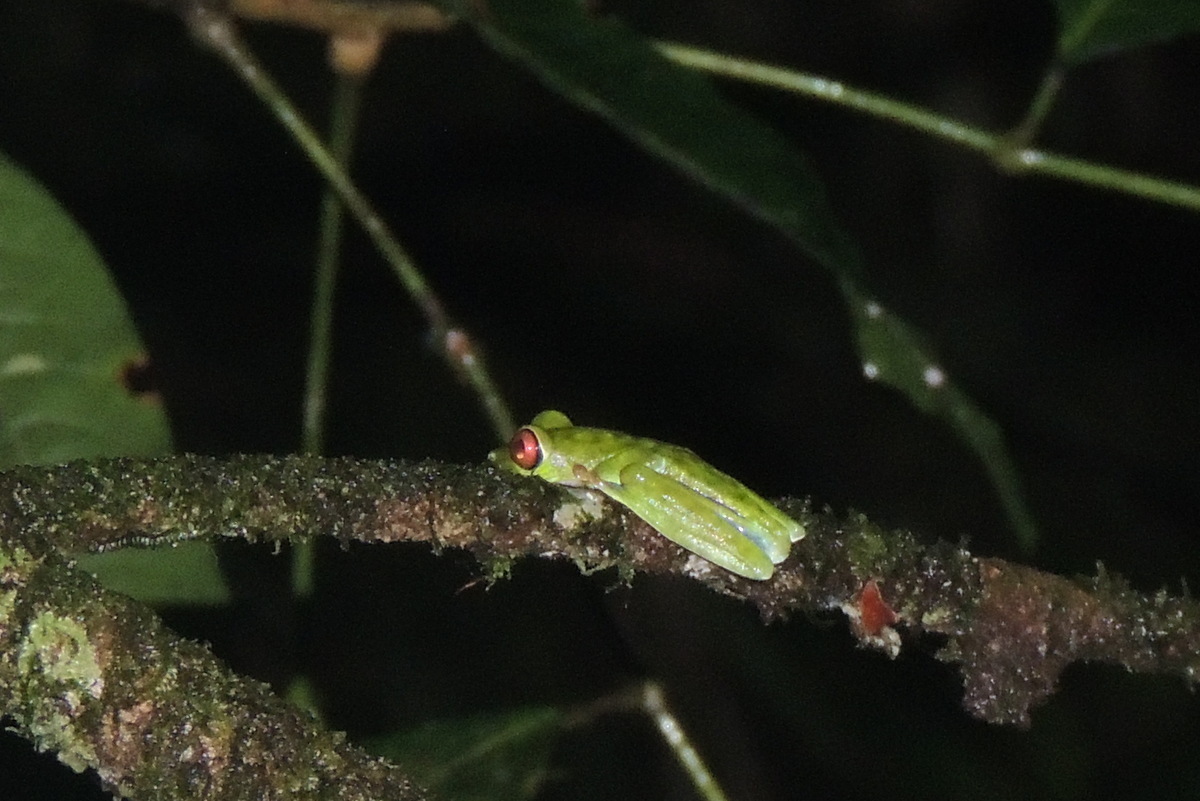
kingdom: Animalia
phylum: Chordata
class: Amphibia
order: Anura
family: Phyllomedusidae
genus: Agalychnis
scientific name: Agalychnis callidryas
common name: Red-eyed treefrog
